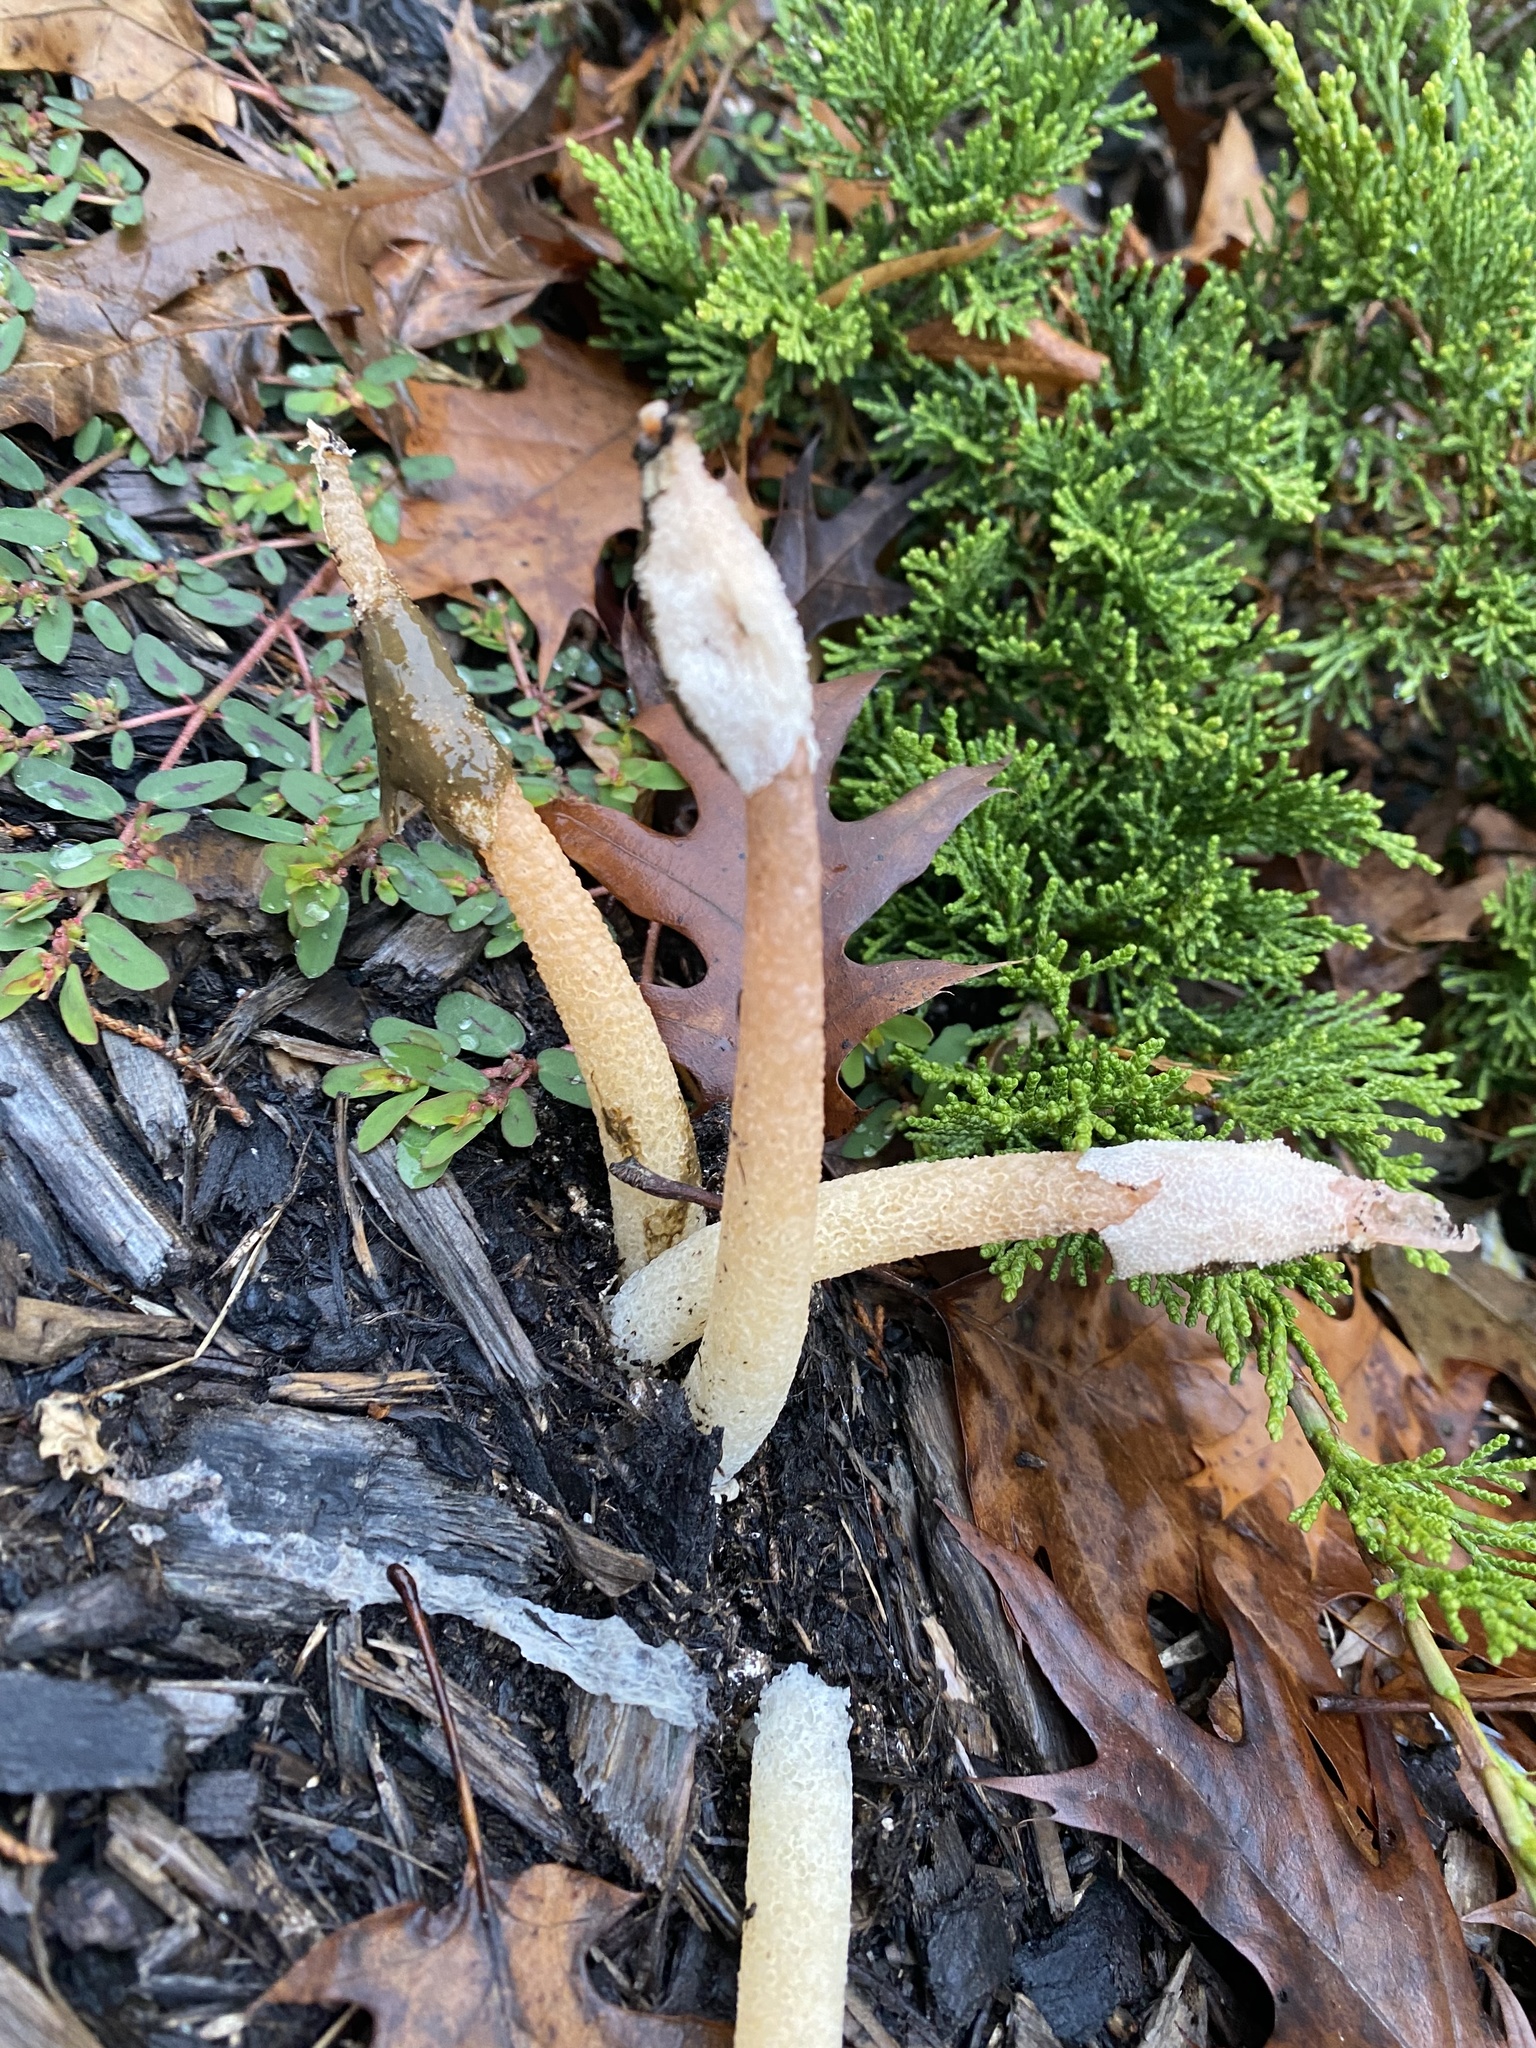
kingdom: Fungi
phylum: Basidiomycota
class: Agaricomycetes
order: Phallales
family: Phallaceae
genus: Phallus
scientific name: Phallus rugulosus
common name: Wrinkly stinkhorn
